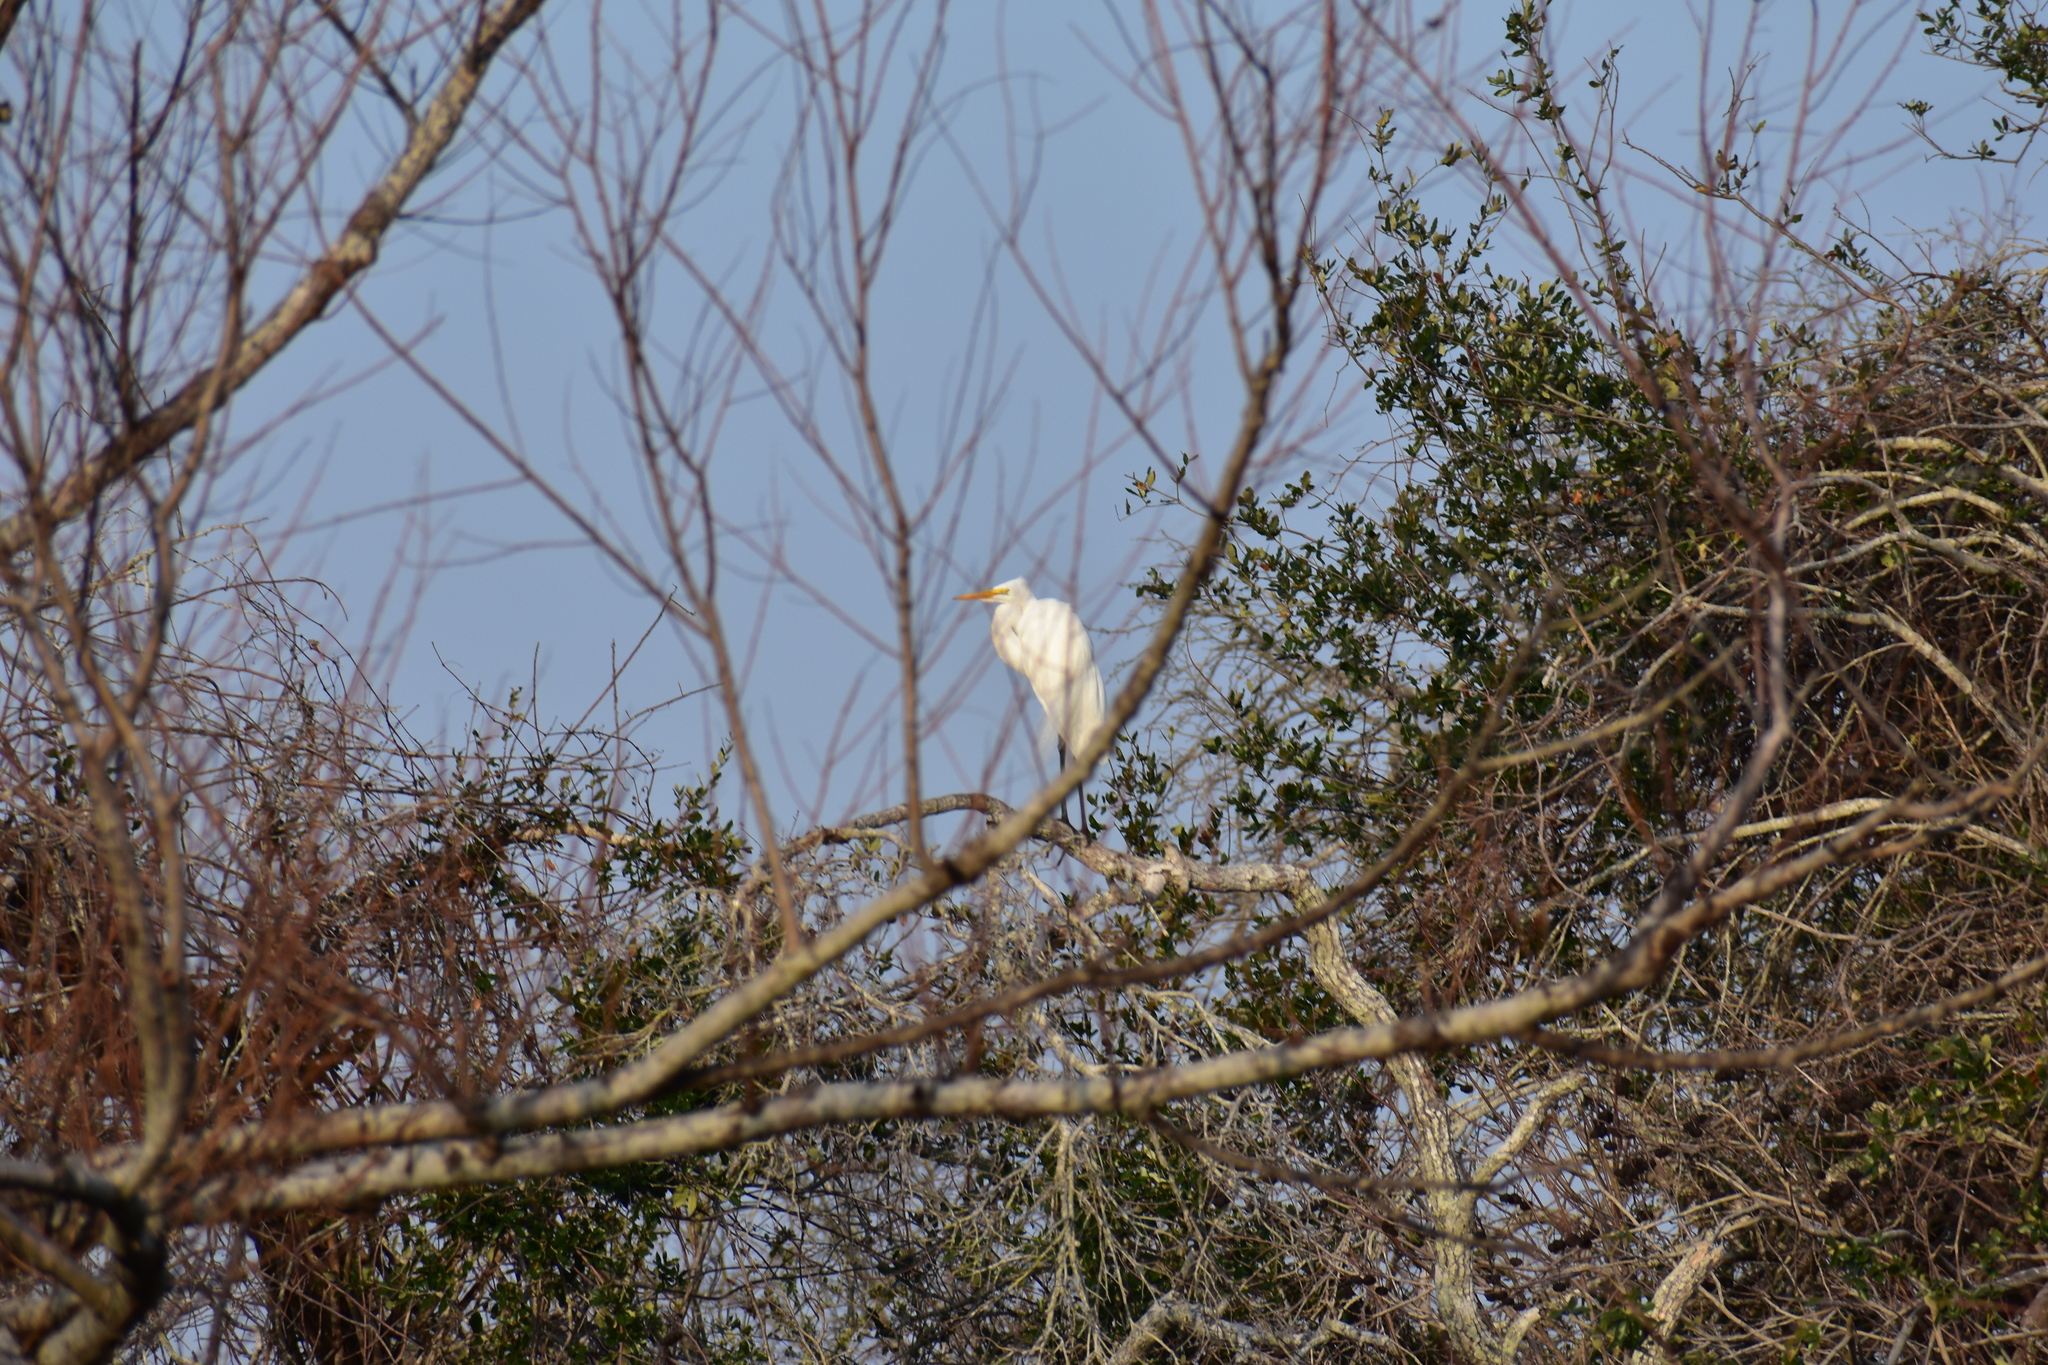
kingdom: Animalia
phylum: Chordata
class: Aves
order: Pelecaniformes
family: Ardeidae
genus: Ardea
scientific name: Ardea alba
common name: Great egret
